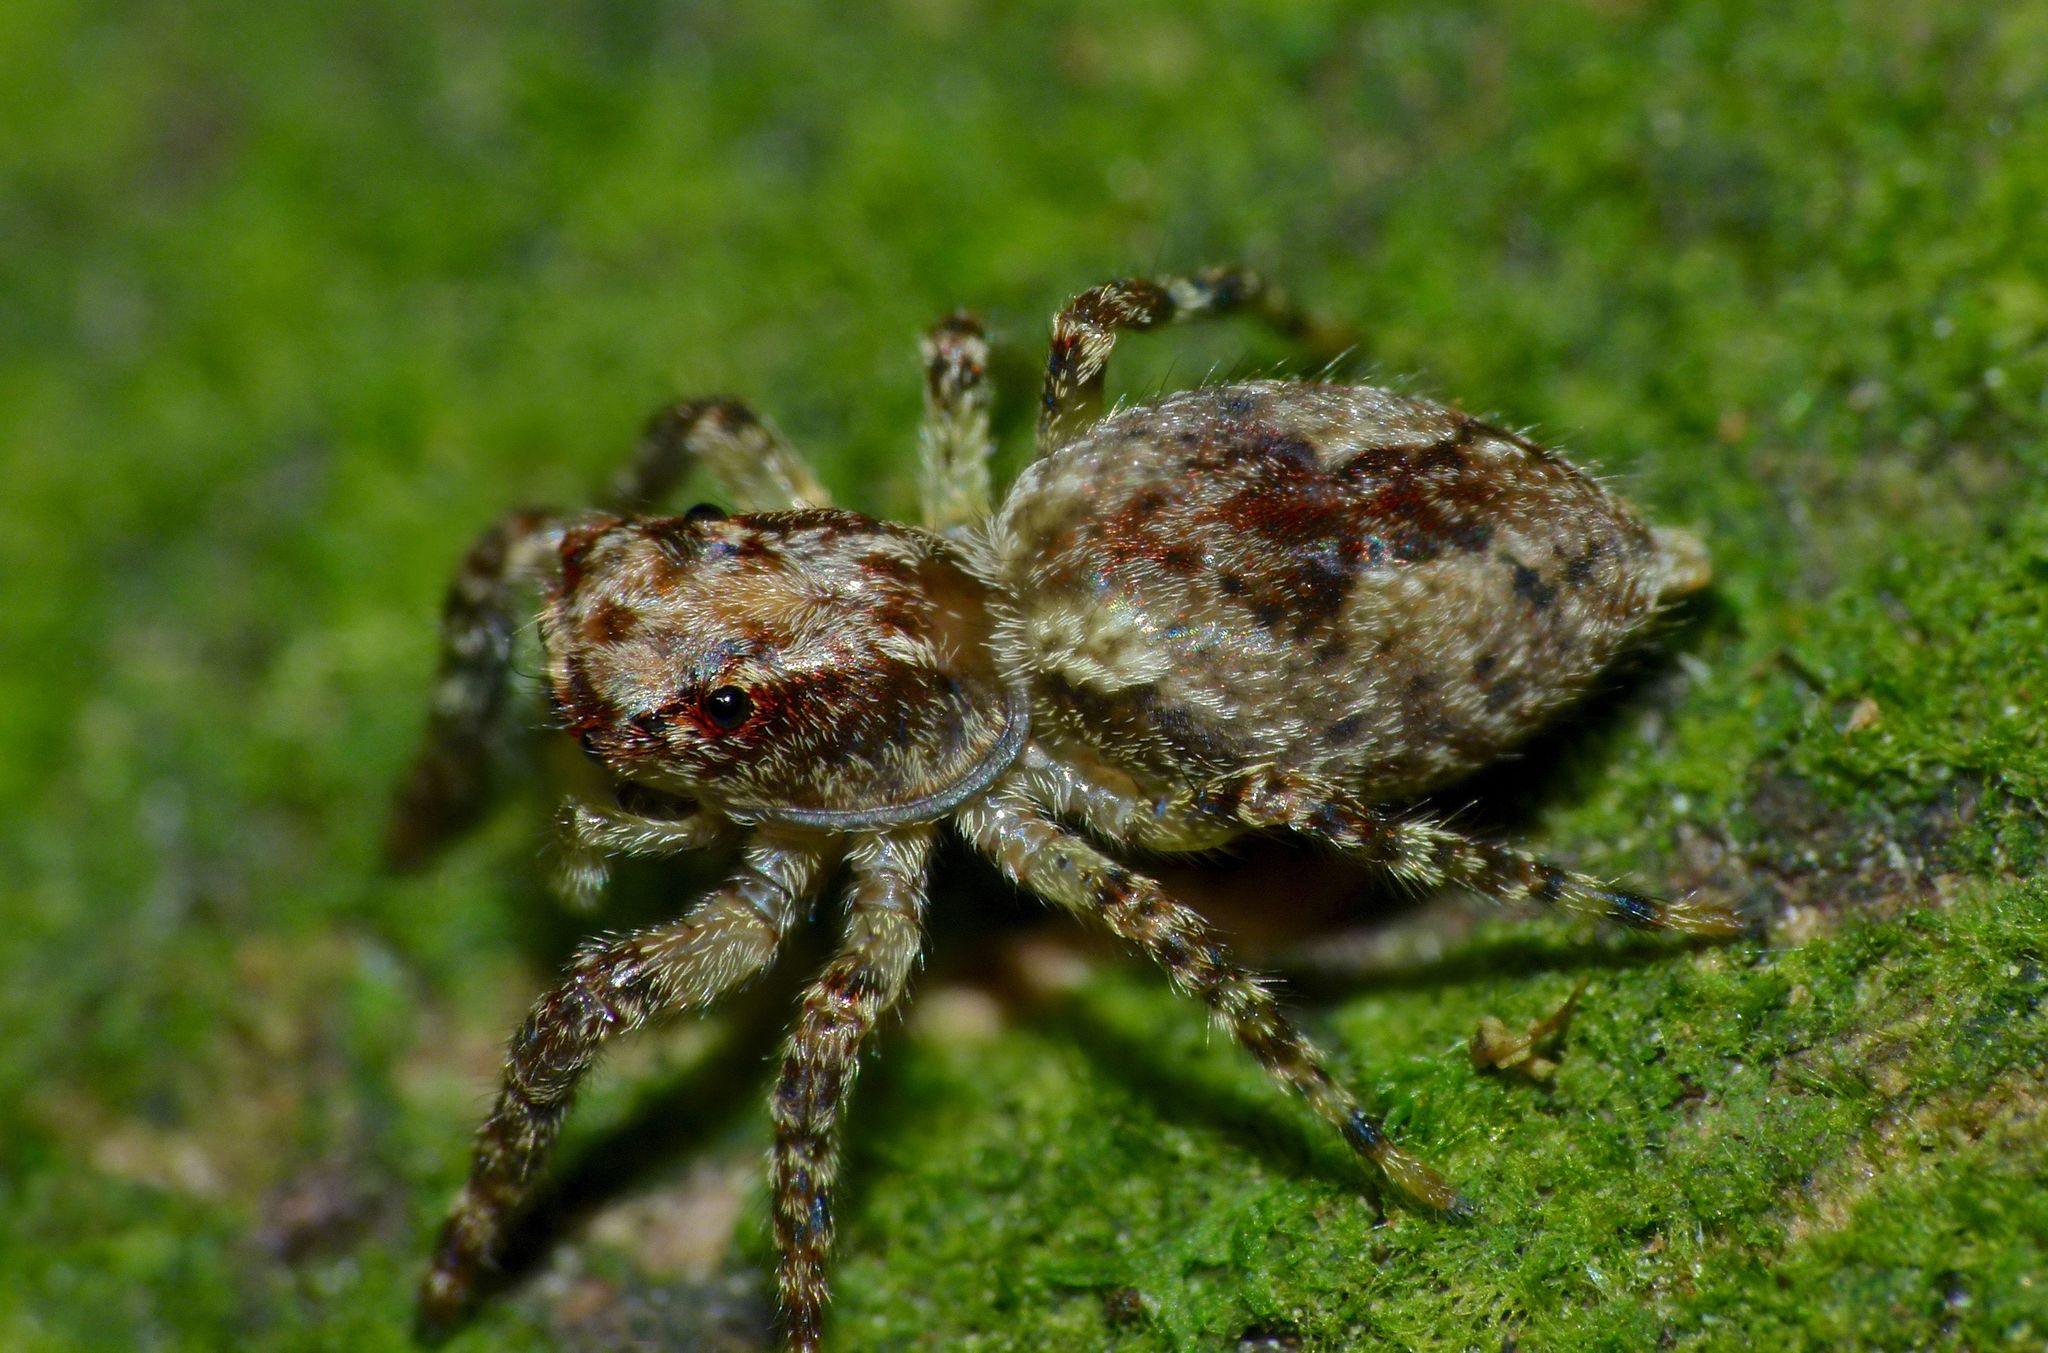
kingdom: Animalia
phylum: Arthropoda
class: Arachnida
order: Araneae
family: Salticidae
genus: Hinewaia
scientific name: Hinewaia embolica
